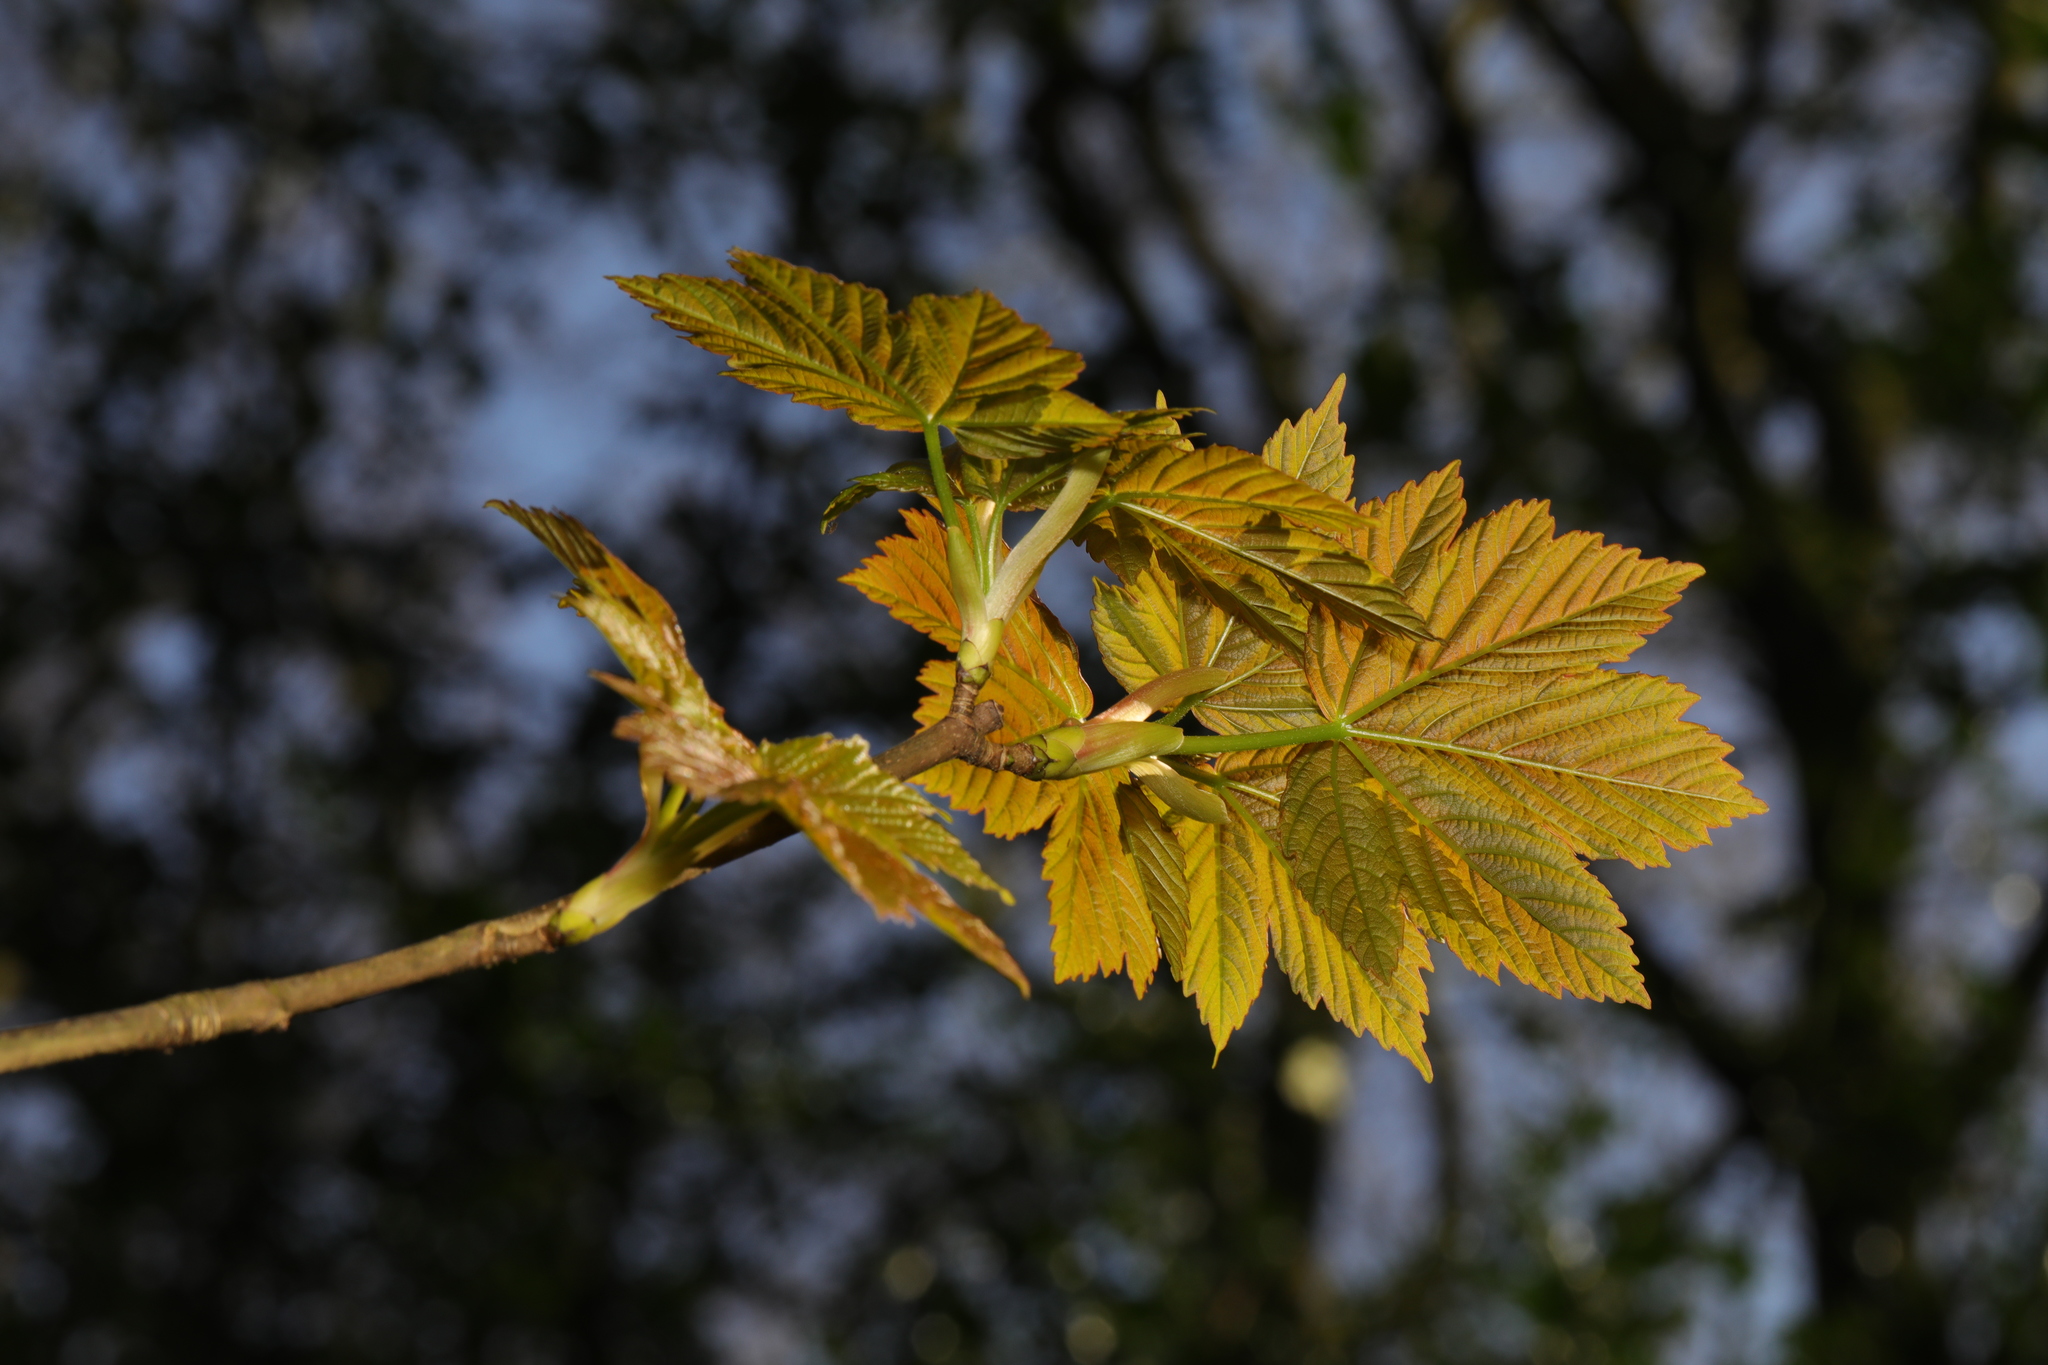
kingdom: Plantae
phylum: Tracheophyta
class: Magnoliopsida
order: Sapindales
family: Sapindaceae
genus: Acer
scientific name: Acer pseudoplatanus
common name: Sycamore
